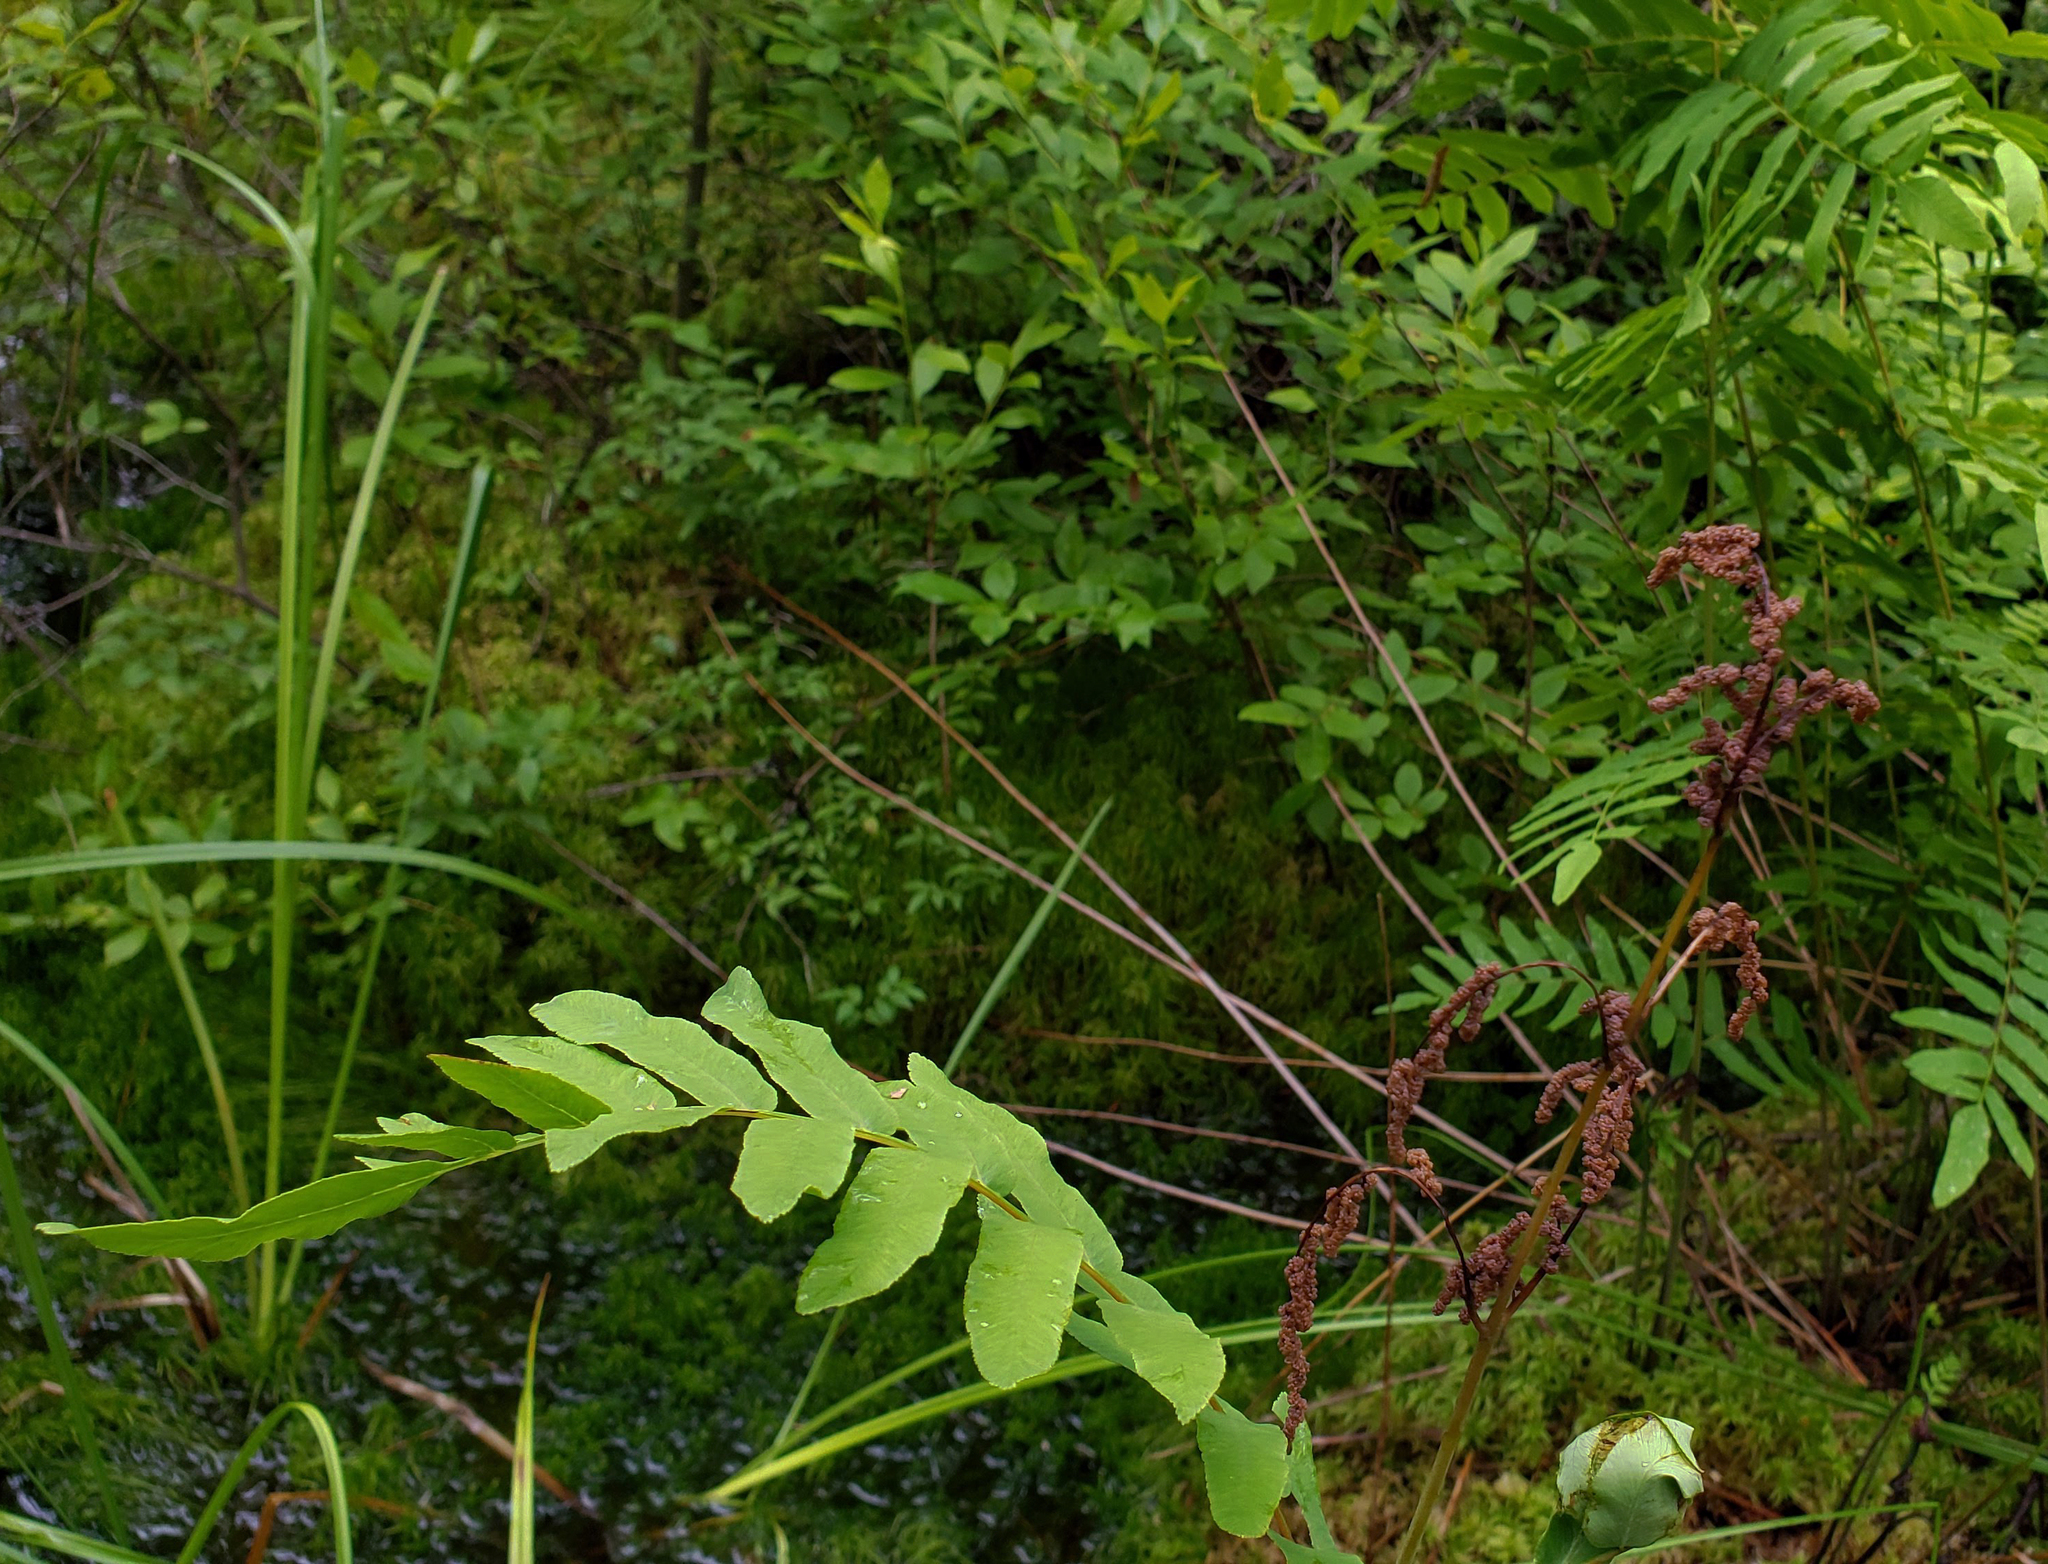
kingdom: Plantae
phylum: Tracheophyta
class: Polypodiopsida
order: Osmundales
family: Osmundaceae
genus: Osmunda
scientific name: Osmunda spectabilis
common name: American royal fern
